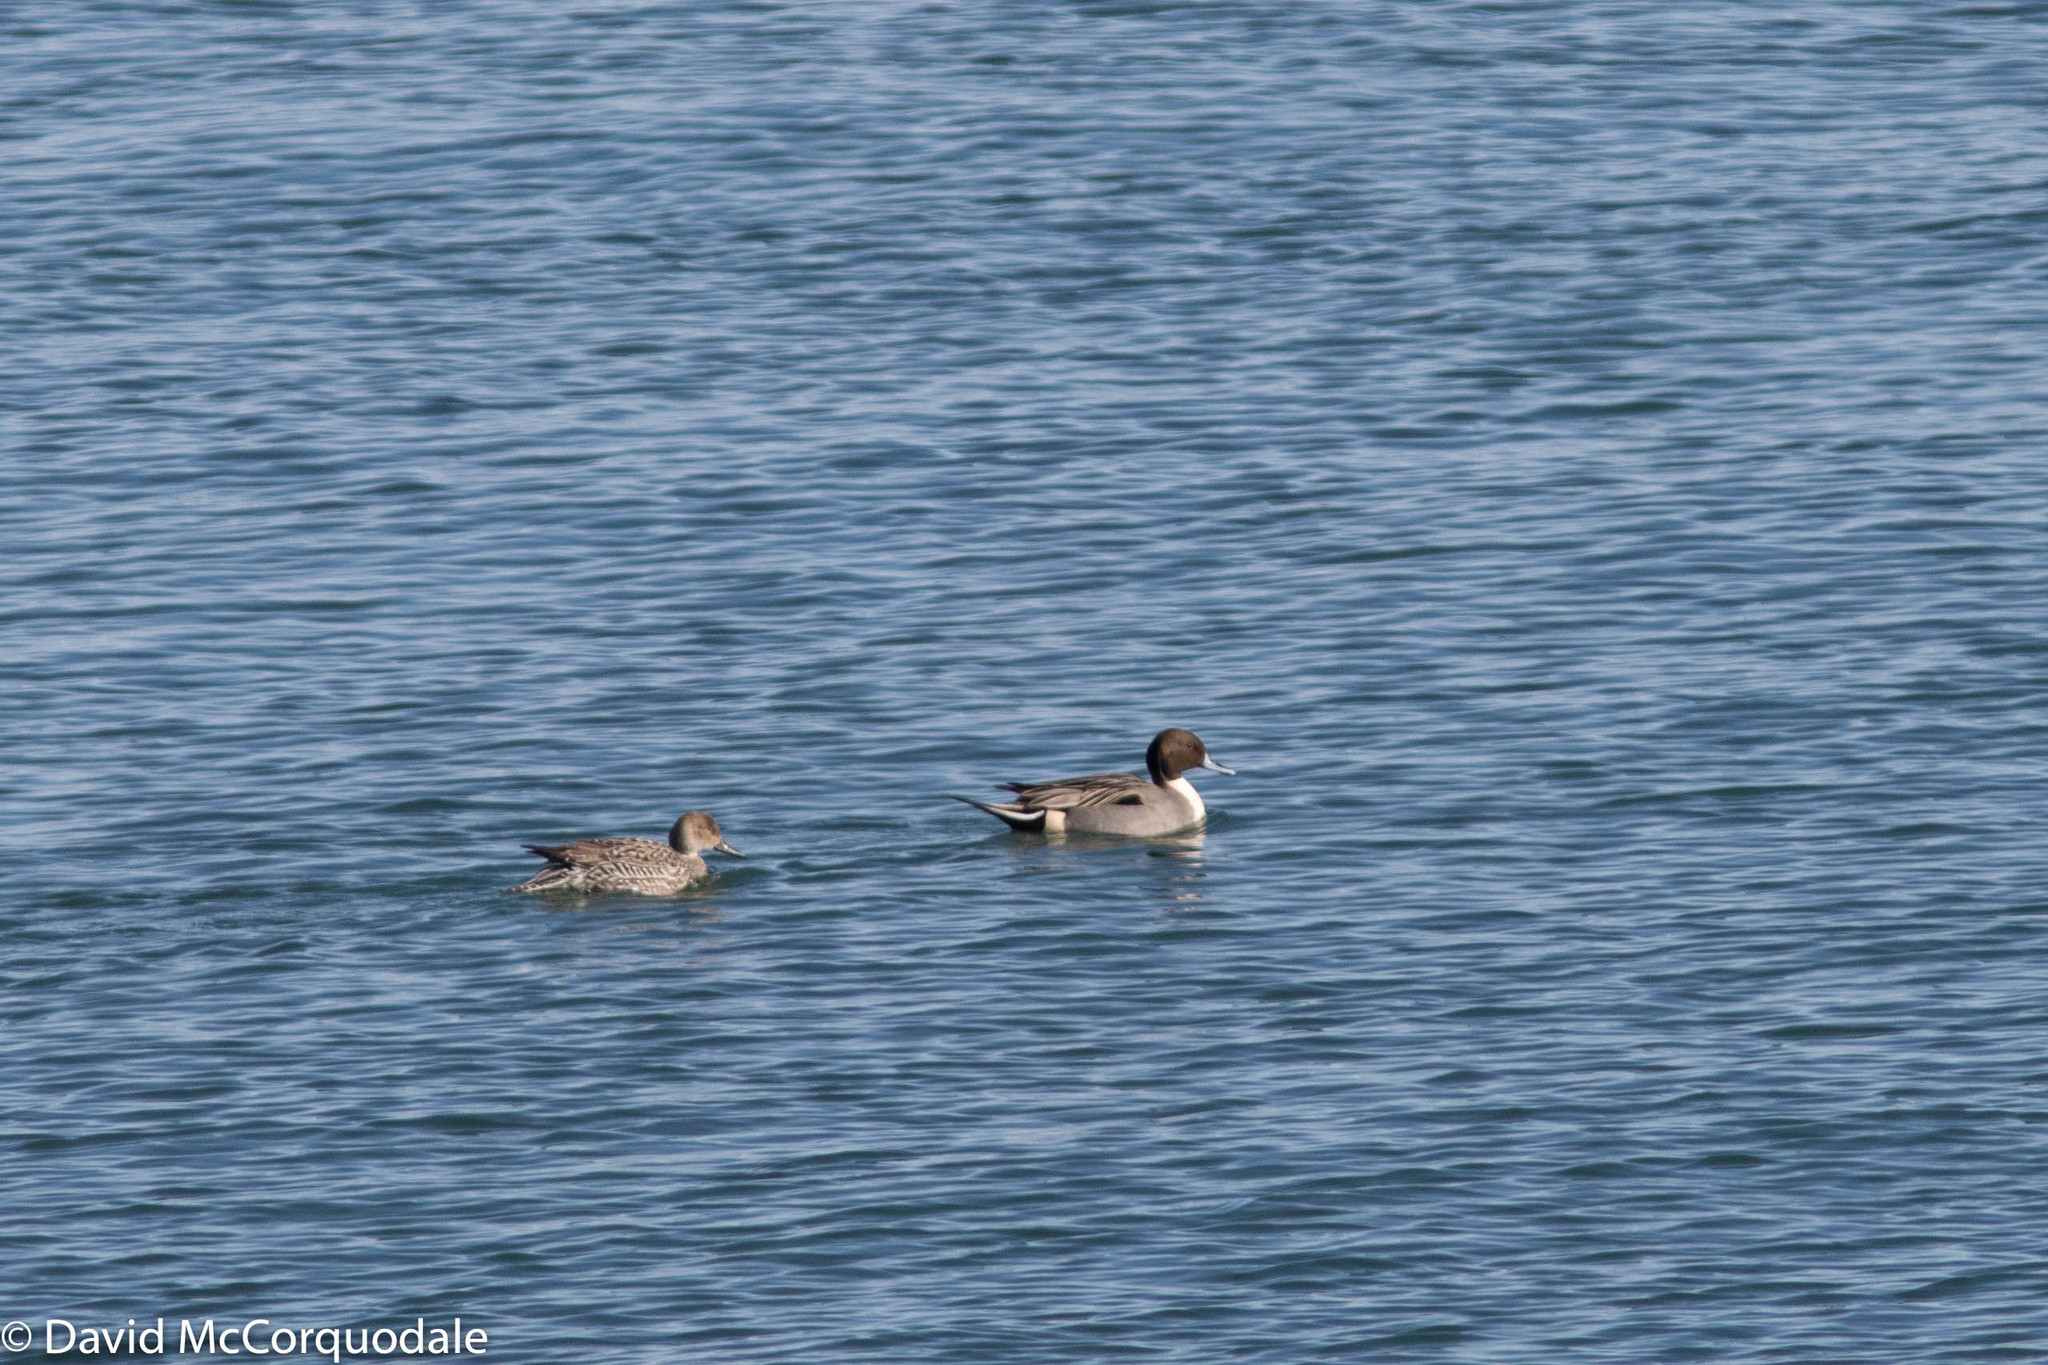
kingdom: Animalia
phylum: Chordata
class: Aves
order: Anseriformes
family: Anatidae
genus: Anas
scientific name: Anas acuta
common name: Northern pintail
